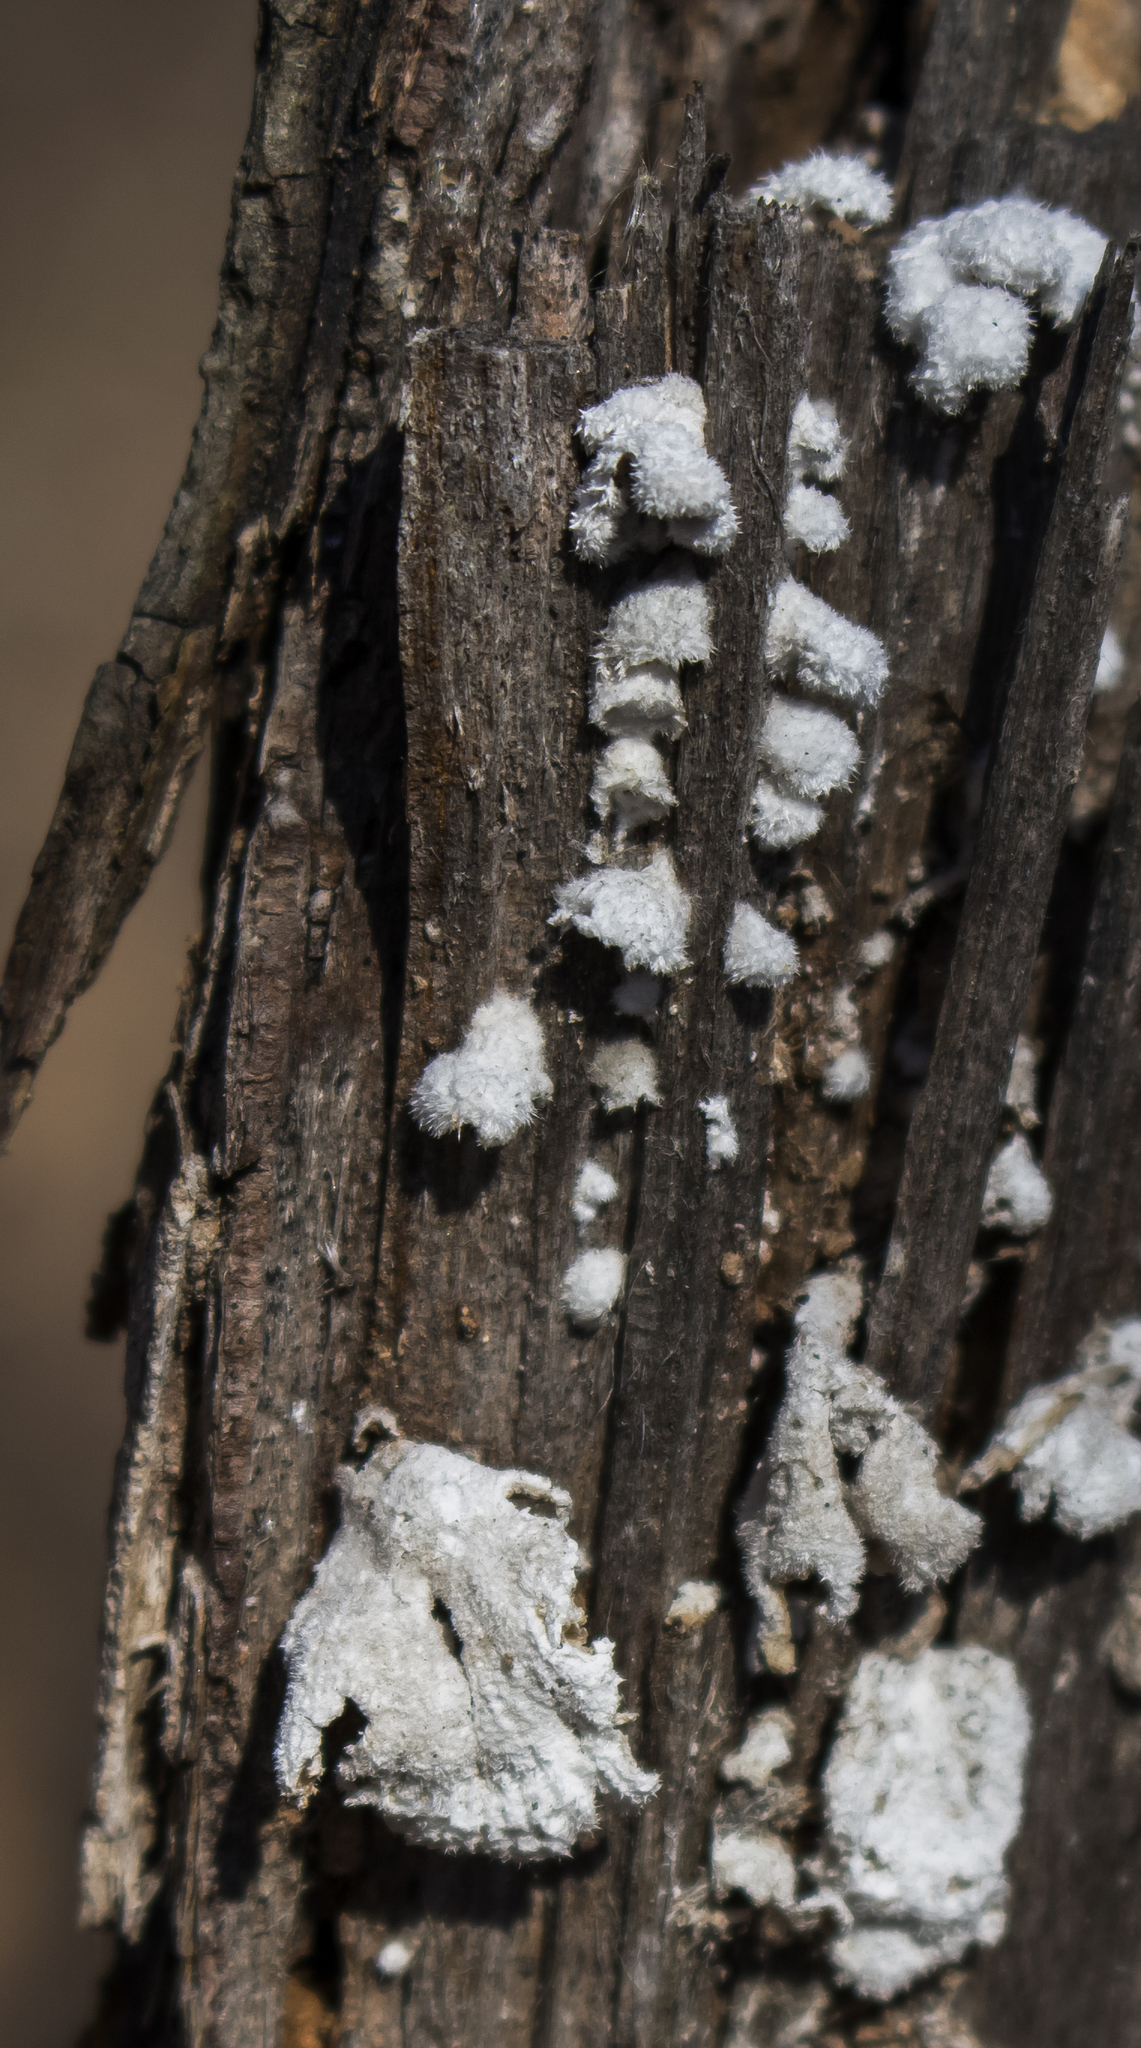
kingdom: Fungi
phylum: Basidiomycota
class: Agaricomycetes
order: Agaricales
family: Schizophyllaceae
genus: Schizophyllum
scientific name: Schizophyllum commune
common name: Common porecrust
